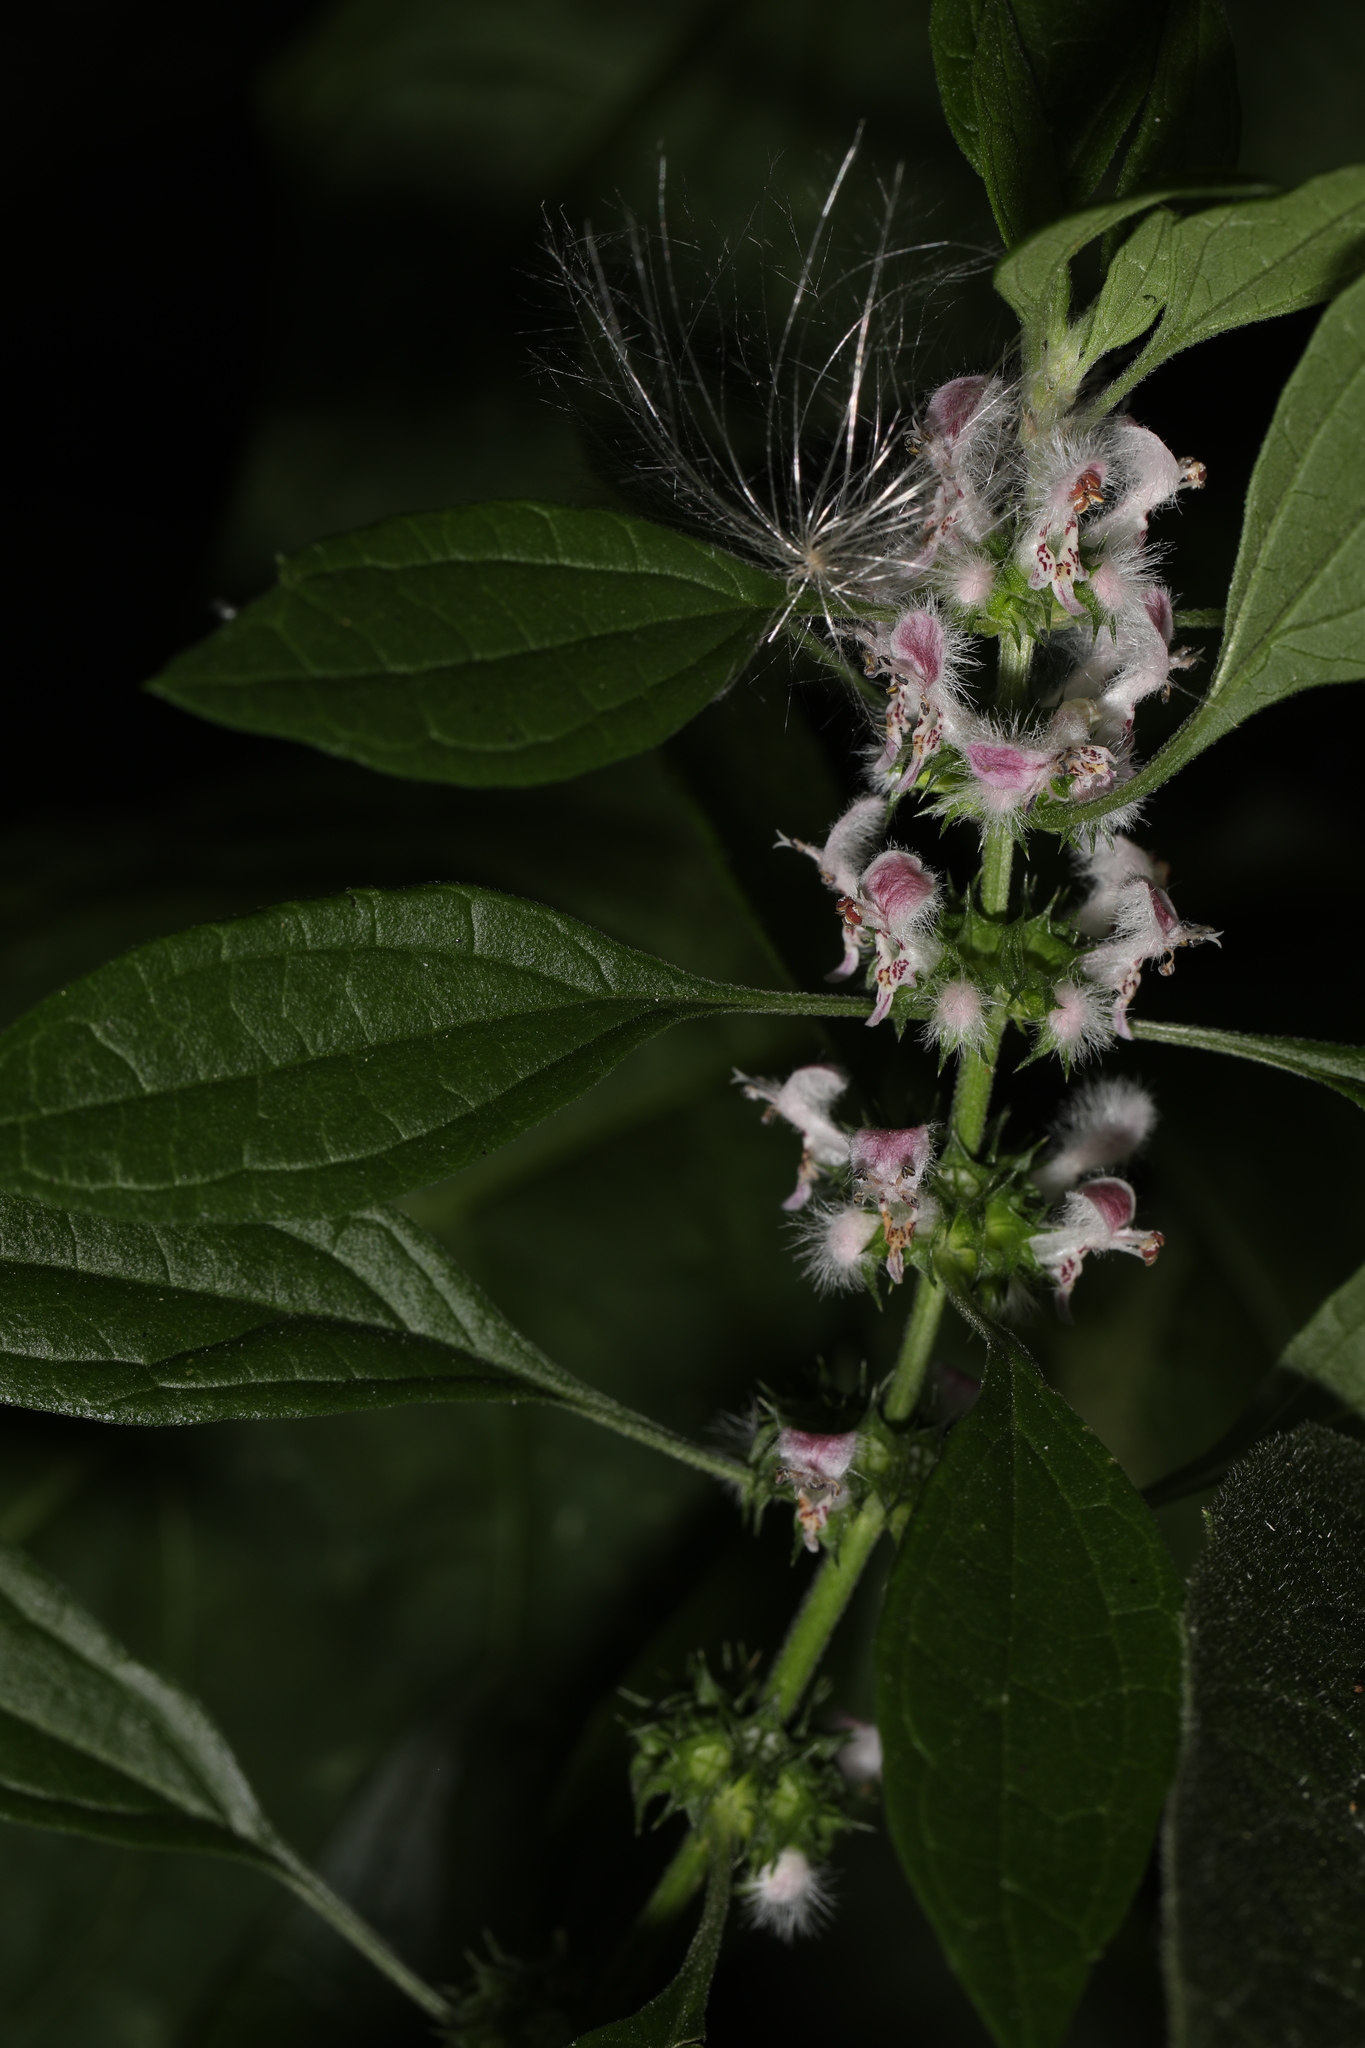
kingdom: Plantae
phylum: Tracheophyta
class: Magnoliopsida
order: Lamiales
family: Lamiaceae
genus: Leonurus
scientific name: Leonurus cardiaca
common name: Motherwort
